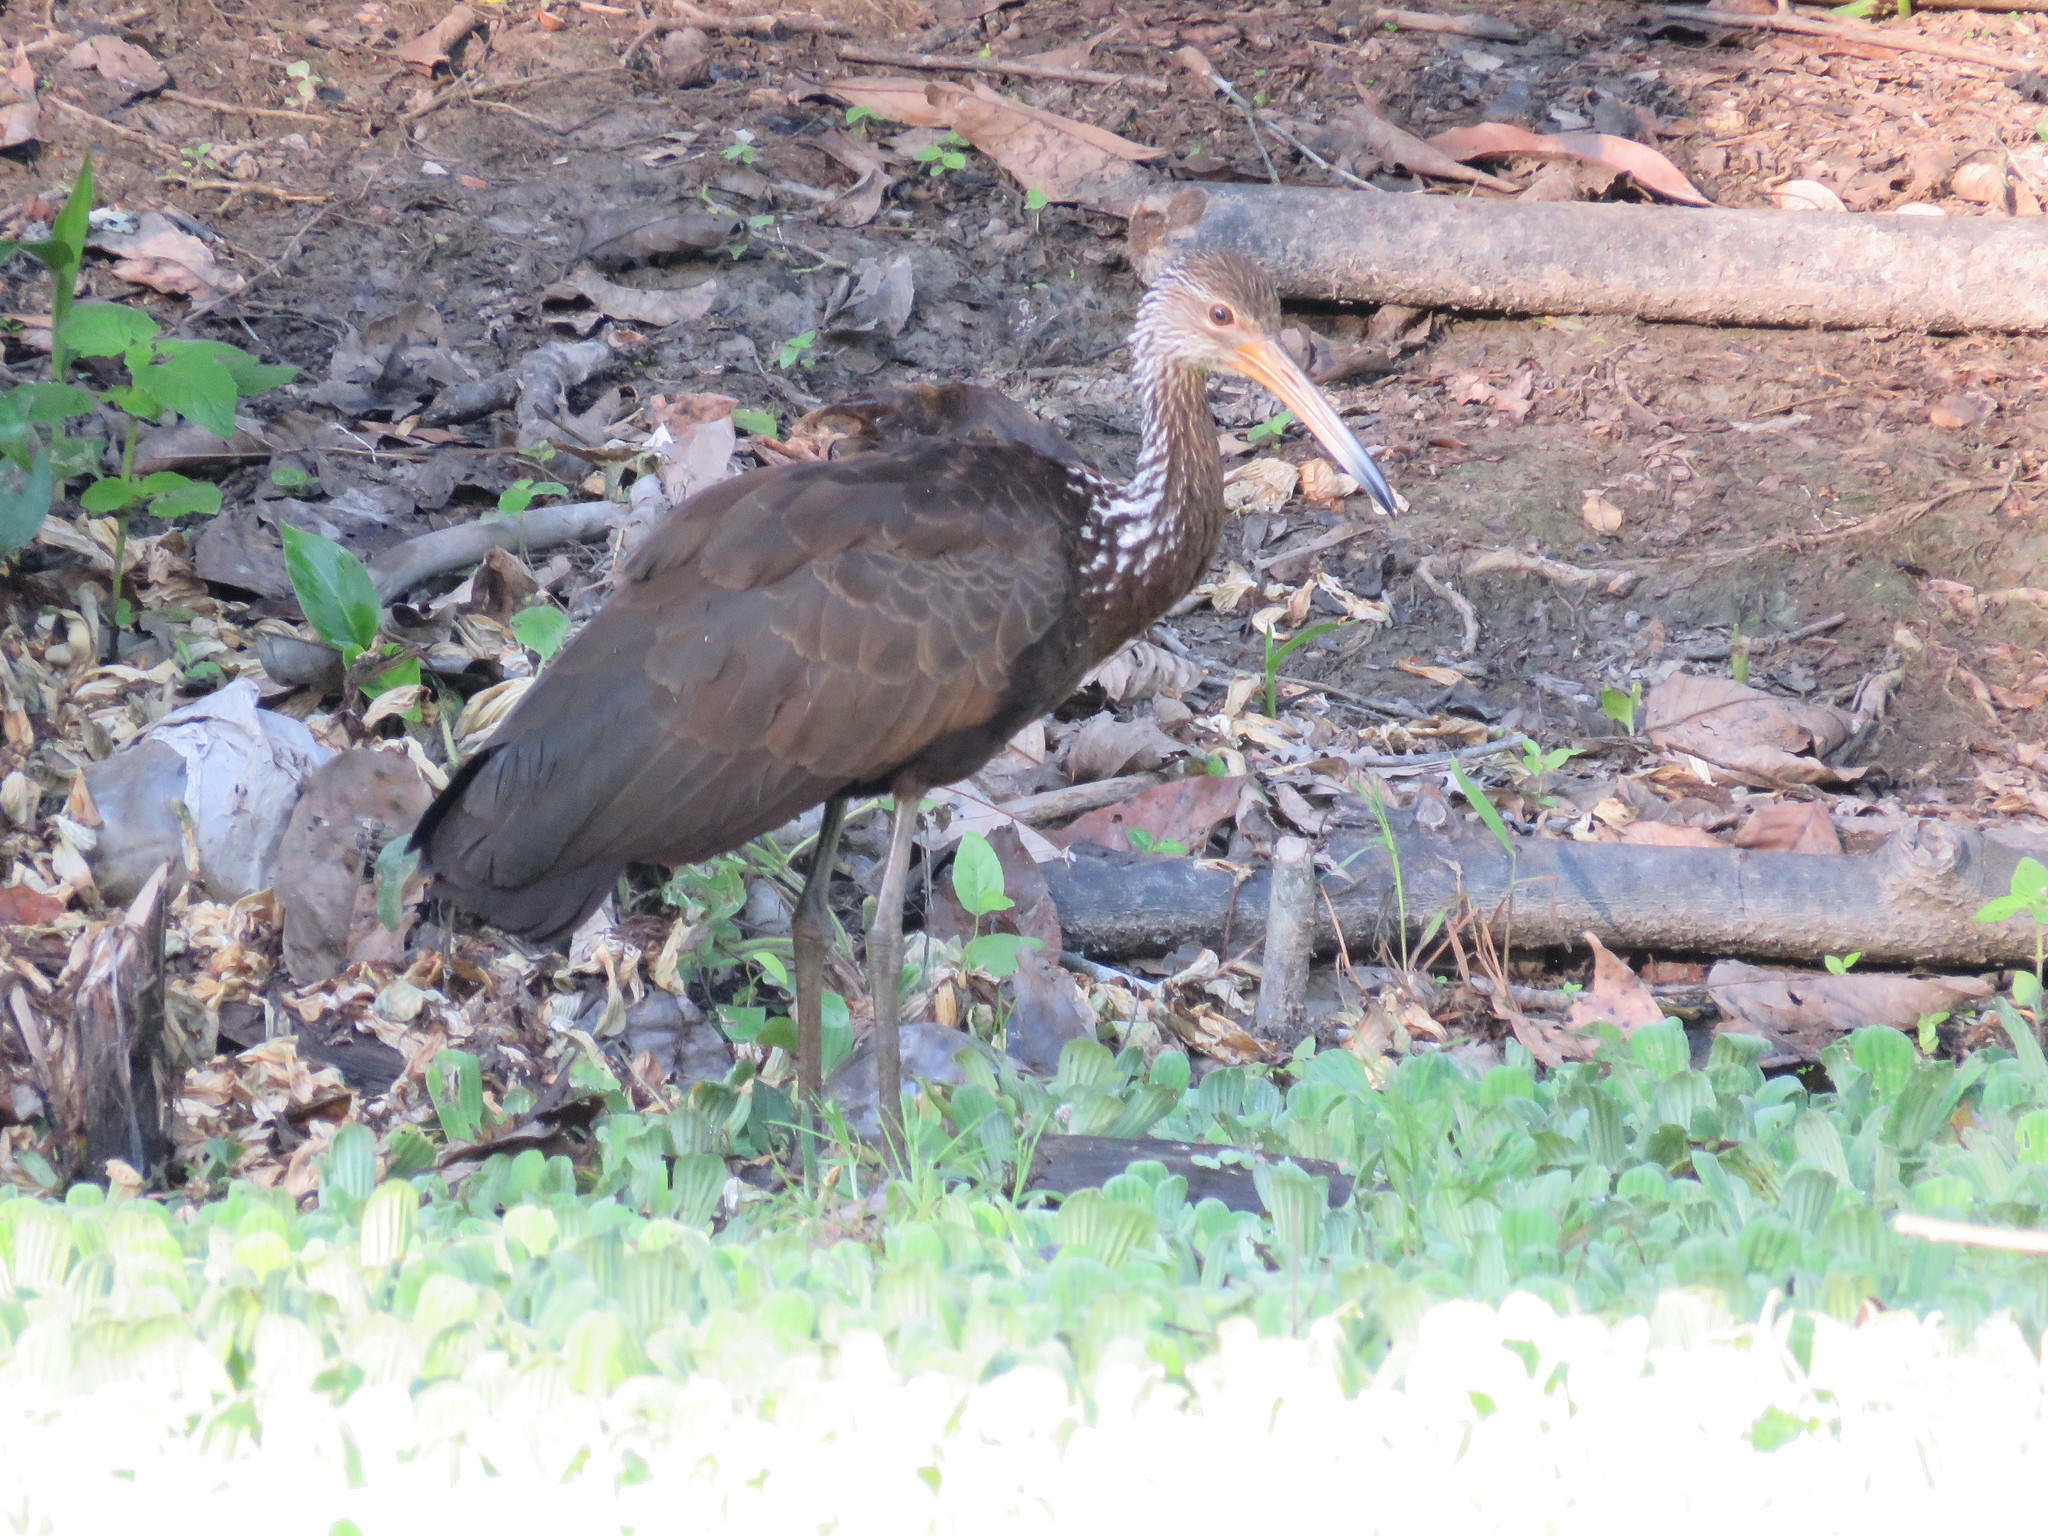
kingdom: Animalia
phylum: Chordata
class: Aves
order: Gruiformes
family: Aramidae
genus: Aramus
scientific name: Aramus guarauna
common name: Limpkin
